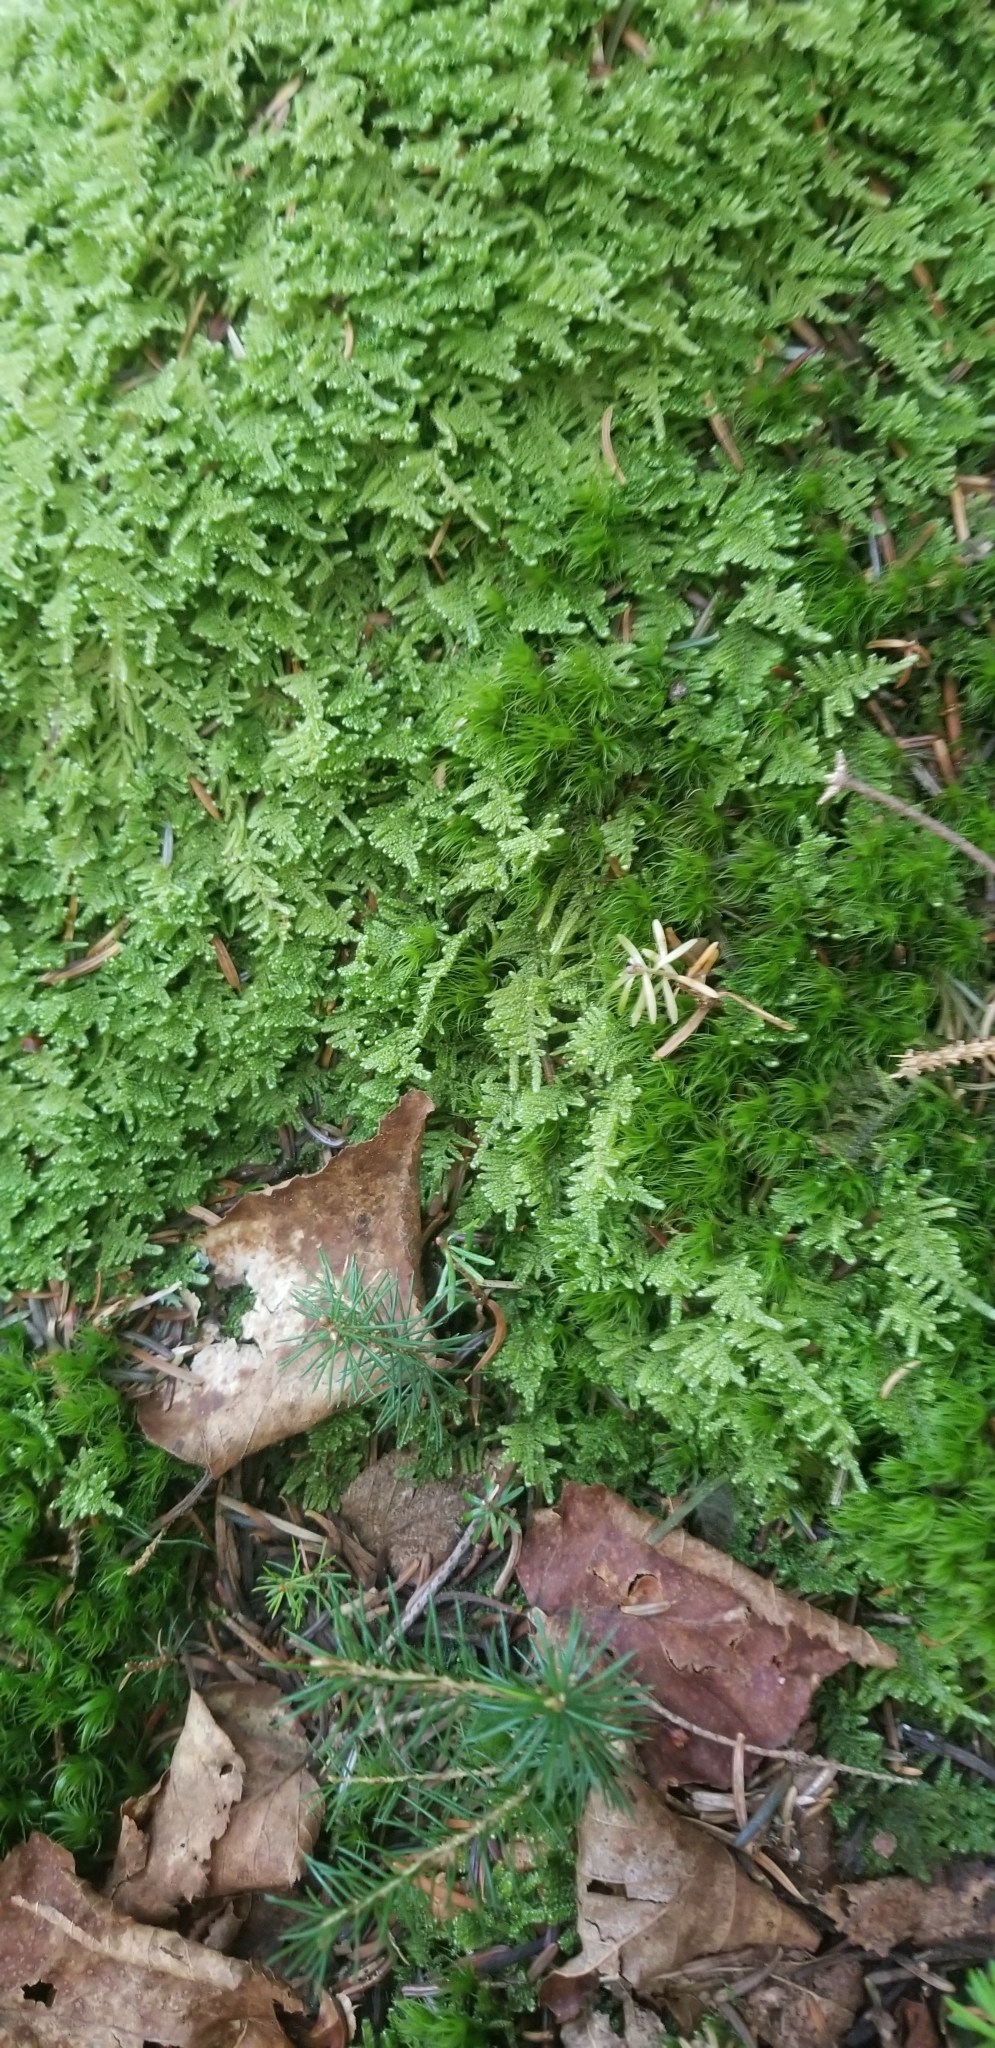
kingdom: Plantae
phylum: Bryophyta
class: Bryopsida
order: Hypnales
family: Callicladiaceae
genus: Callicladium
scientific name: Callicladium imponens
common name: Brocade moss
